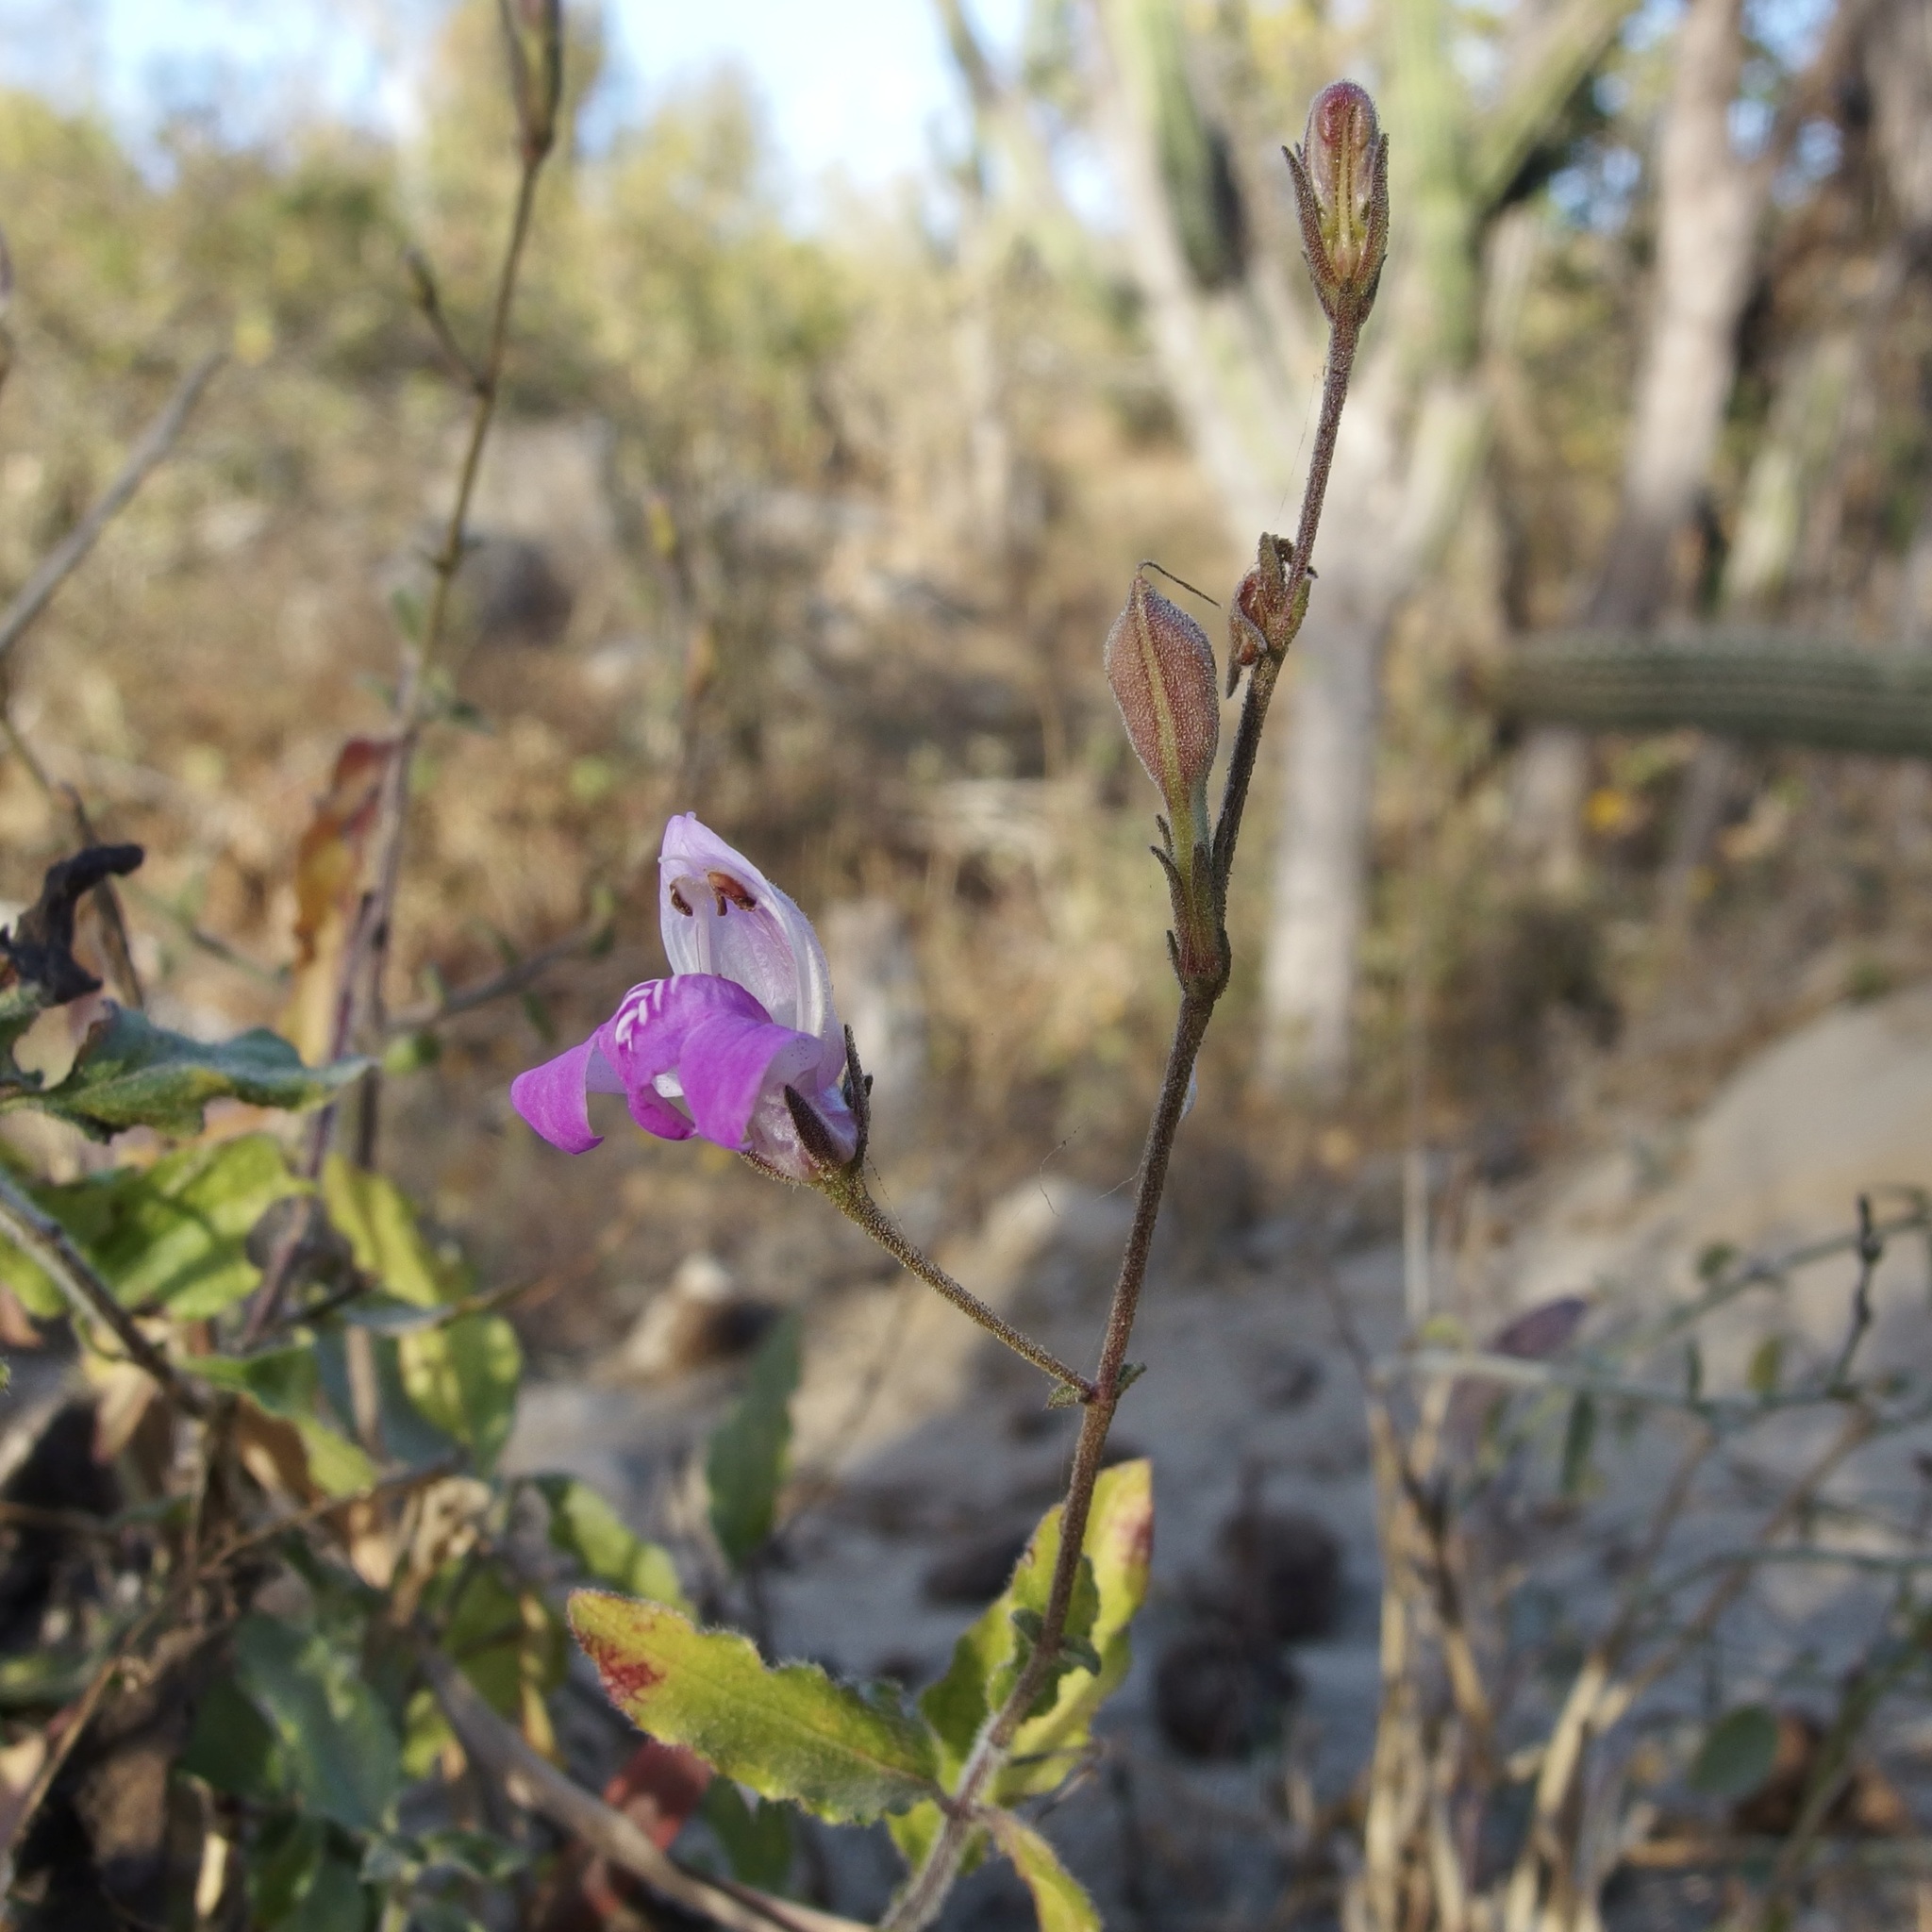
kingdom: Plantae
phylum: Tracheophyta
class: Magnoliopsida
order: Lamiales
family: Acanthaceae
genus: Justicia
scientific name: Justicia insolita
